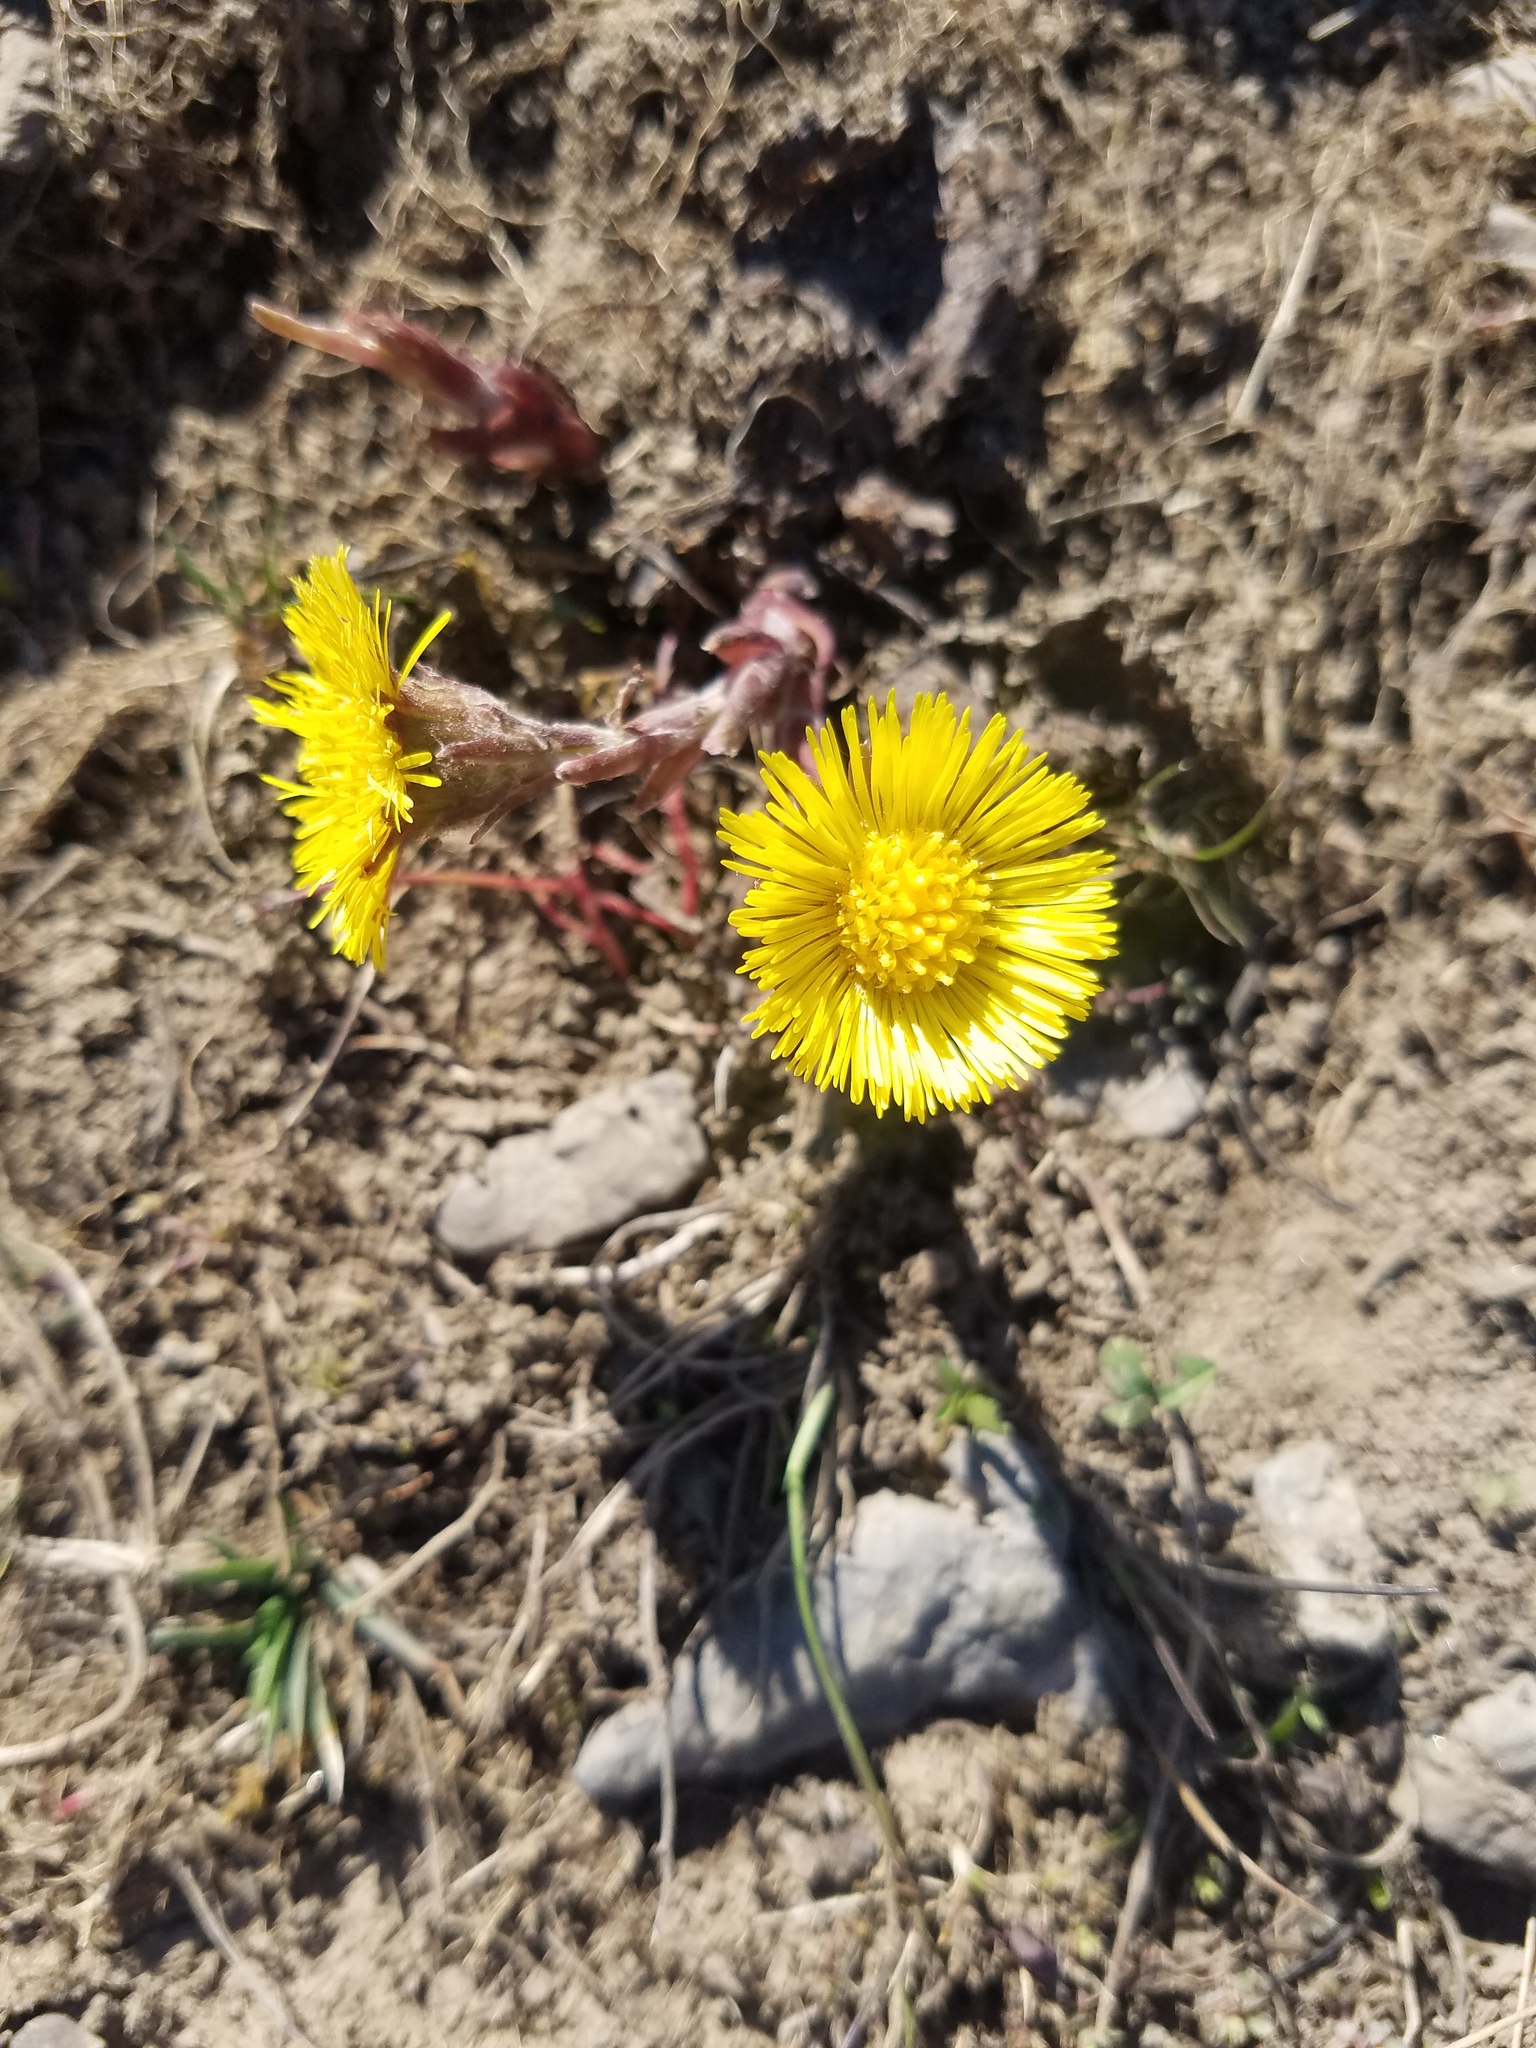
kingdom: Plantae
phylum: Tracheophyta
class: Magnoliopsida
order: Asterales
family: Asteraceae
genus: Tussilago
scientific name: Tussilago farfara
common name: Coltsfoot
